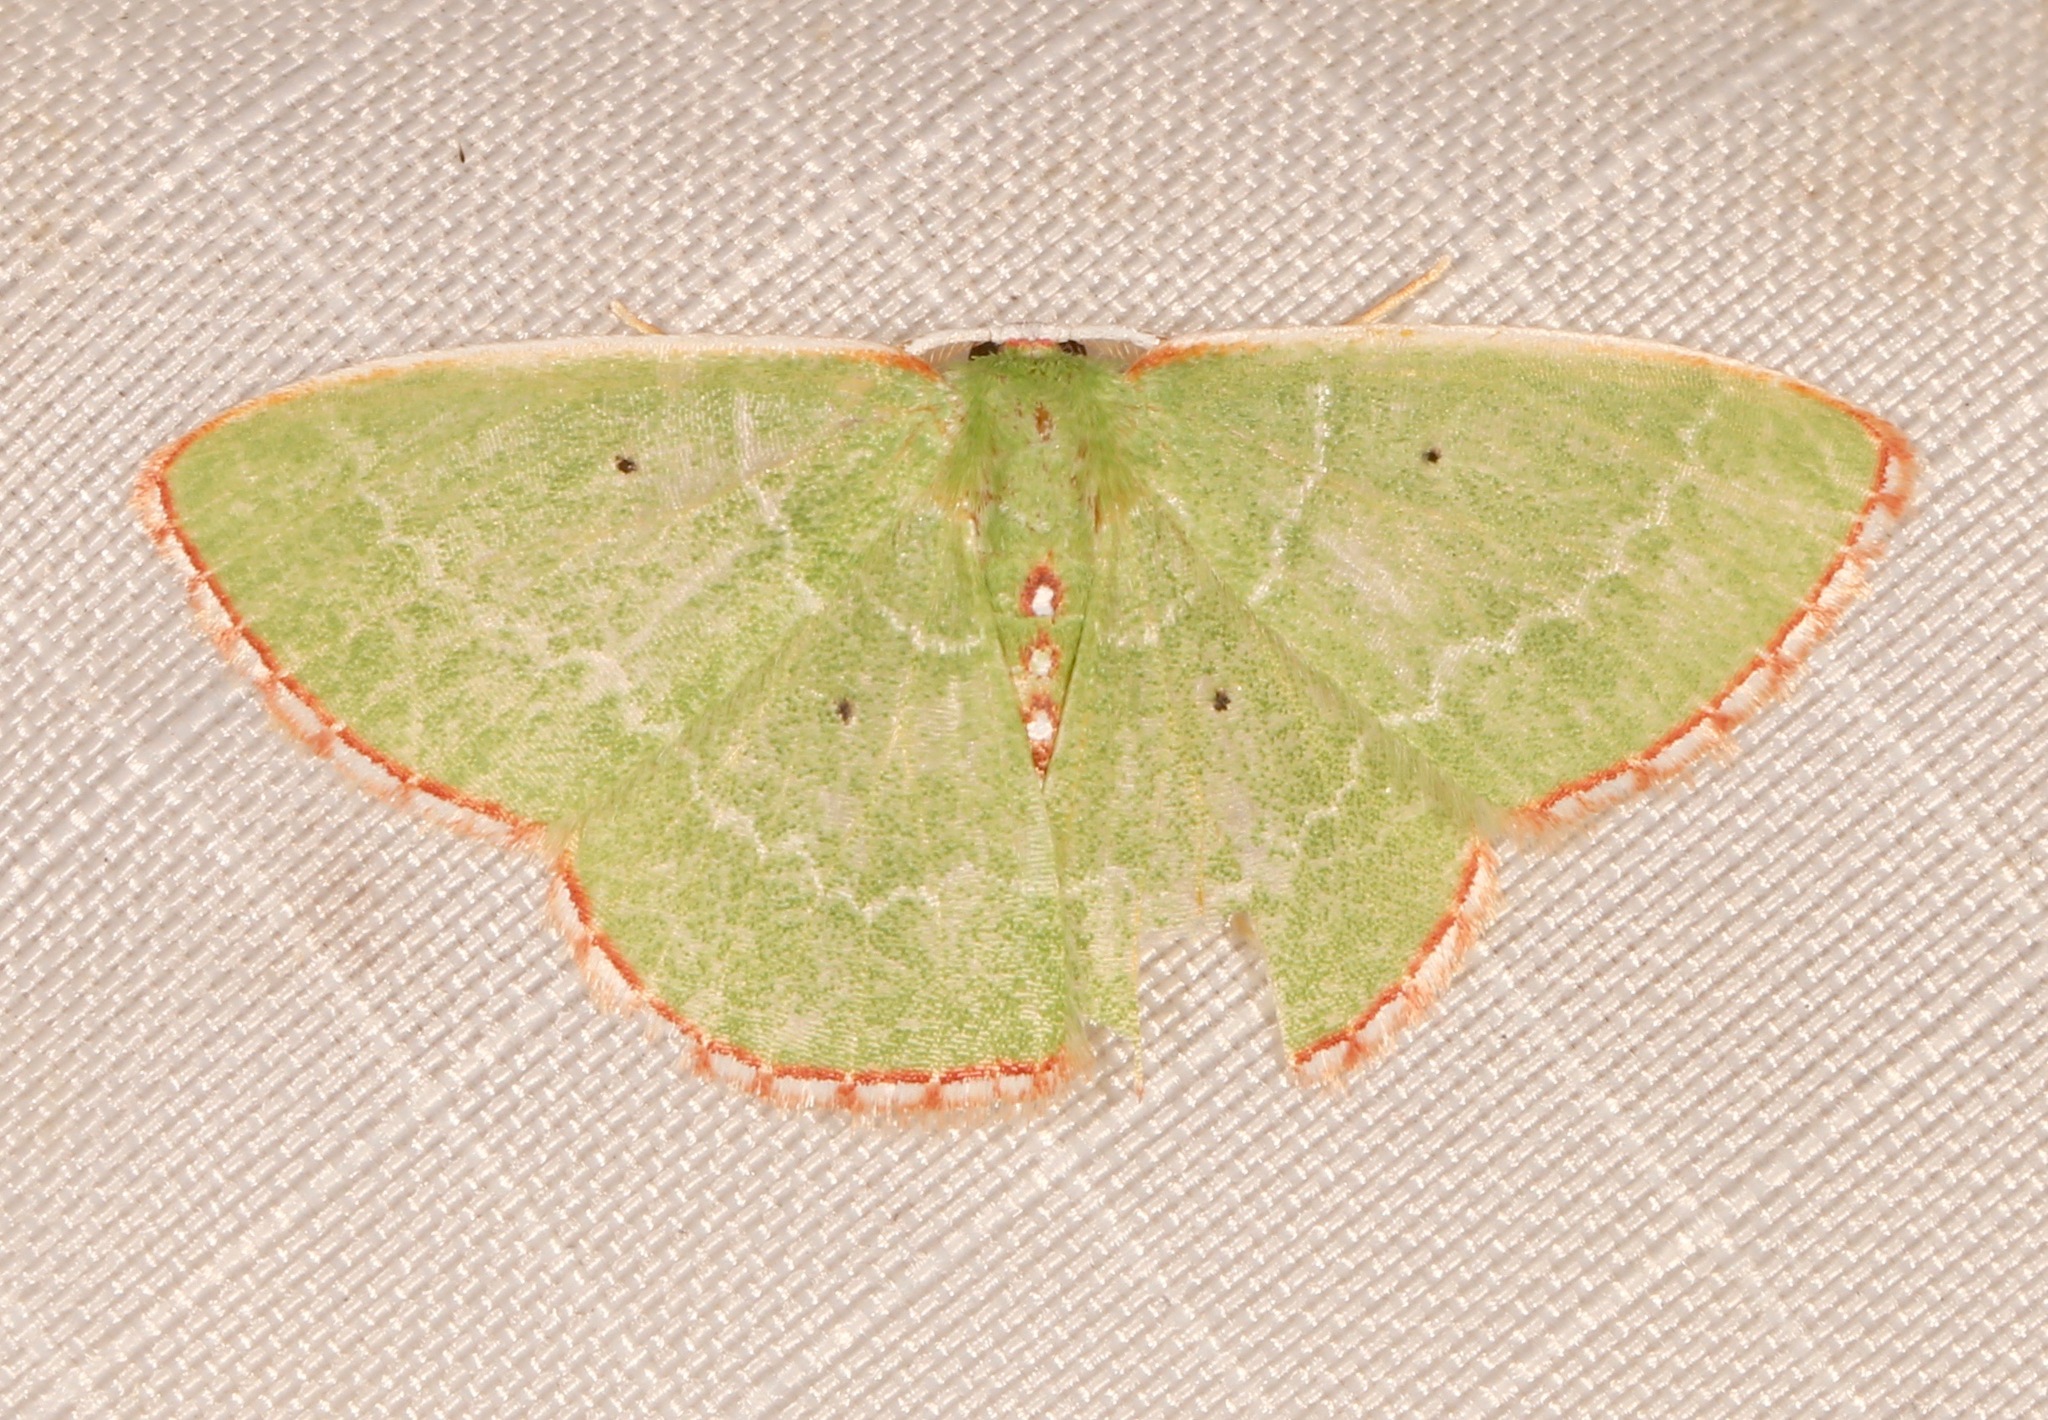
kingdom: Animalia
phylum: Arthropoda
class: Insecta
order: Lepidoptera
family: Geometridae
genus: Nemoria
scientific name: Nemoria catachloa
